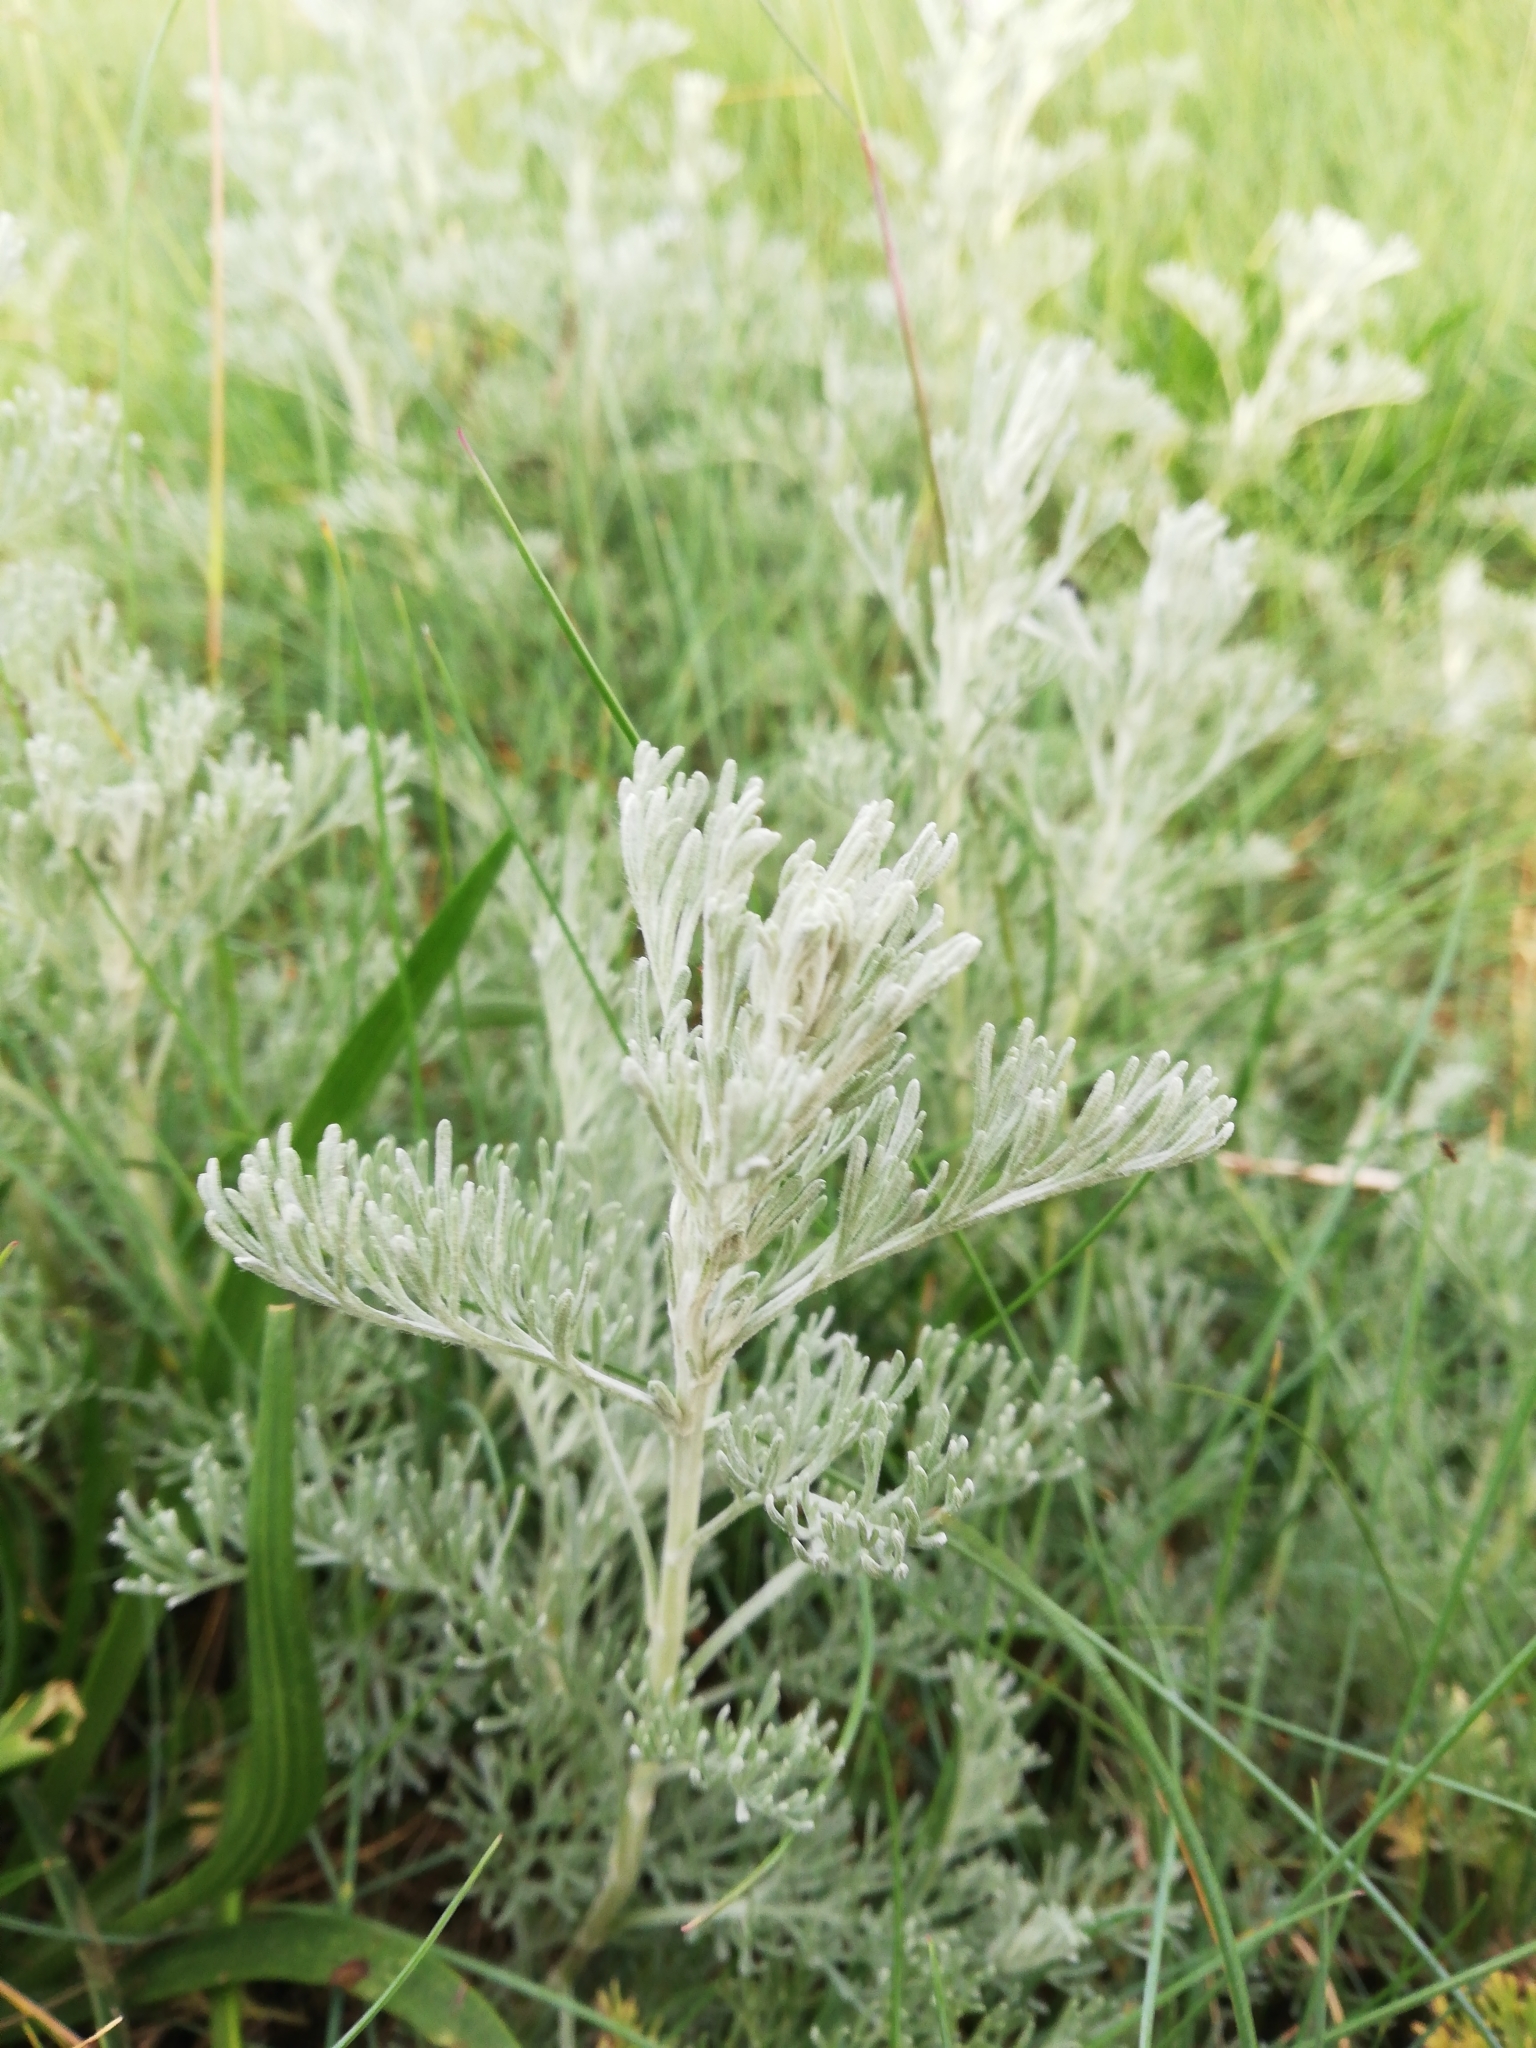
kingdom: Plantae
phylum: Tracheophyta
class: Magnoliopsida
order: Asterales
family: Asteraceae
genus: Artemisia
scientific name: Artemisia maritima
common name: Wormseed
